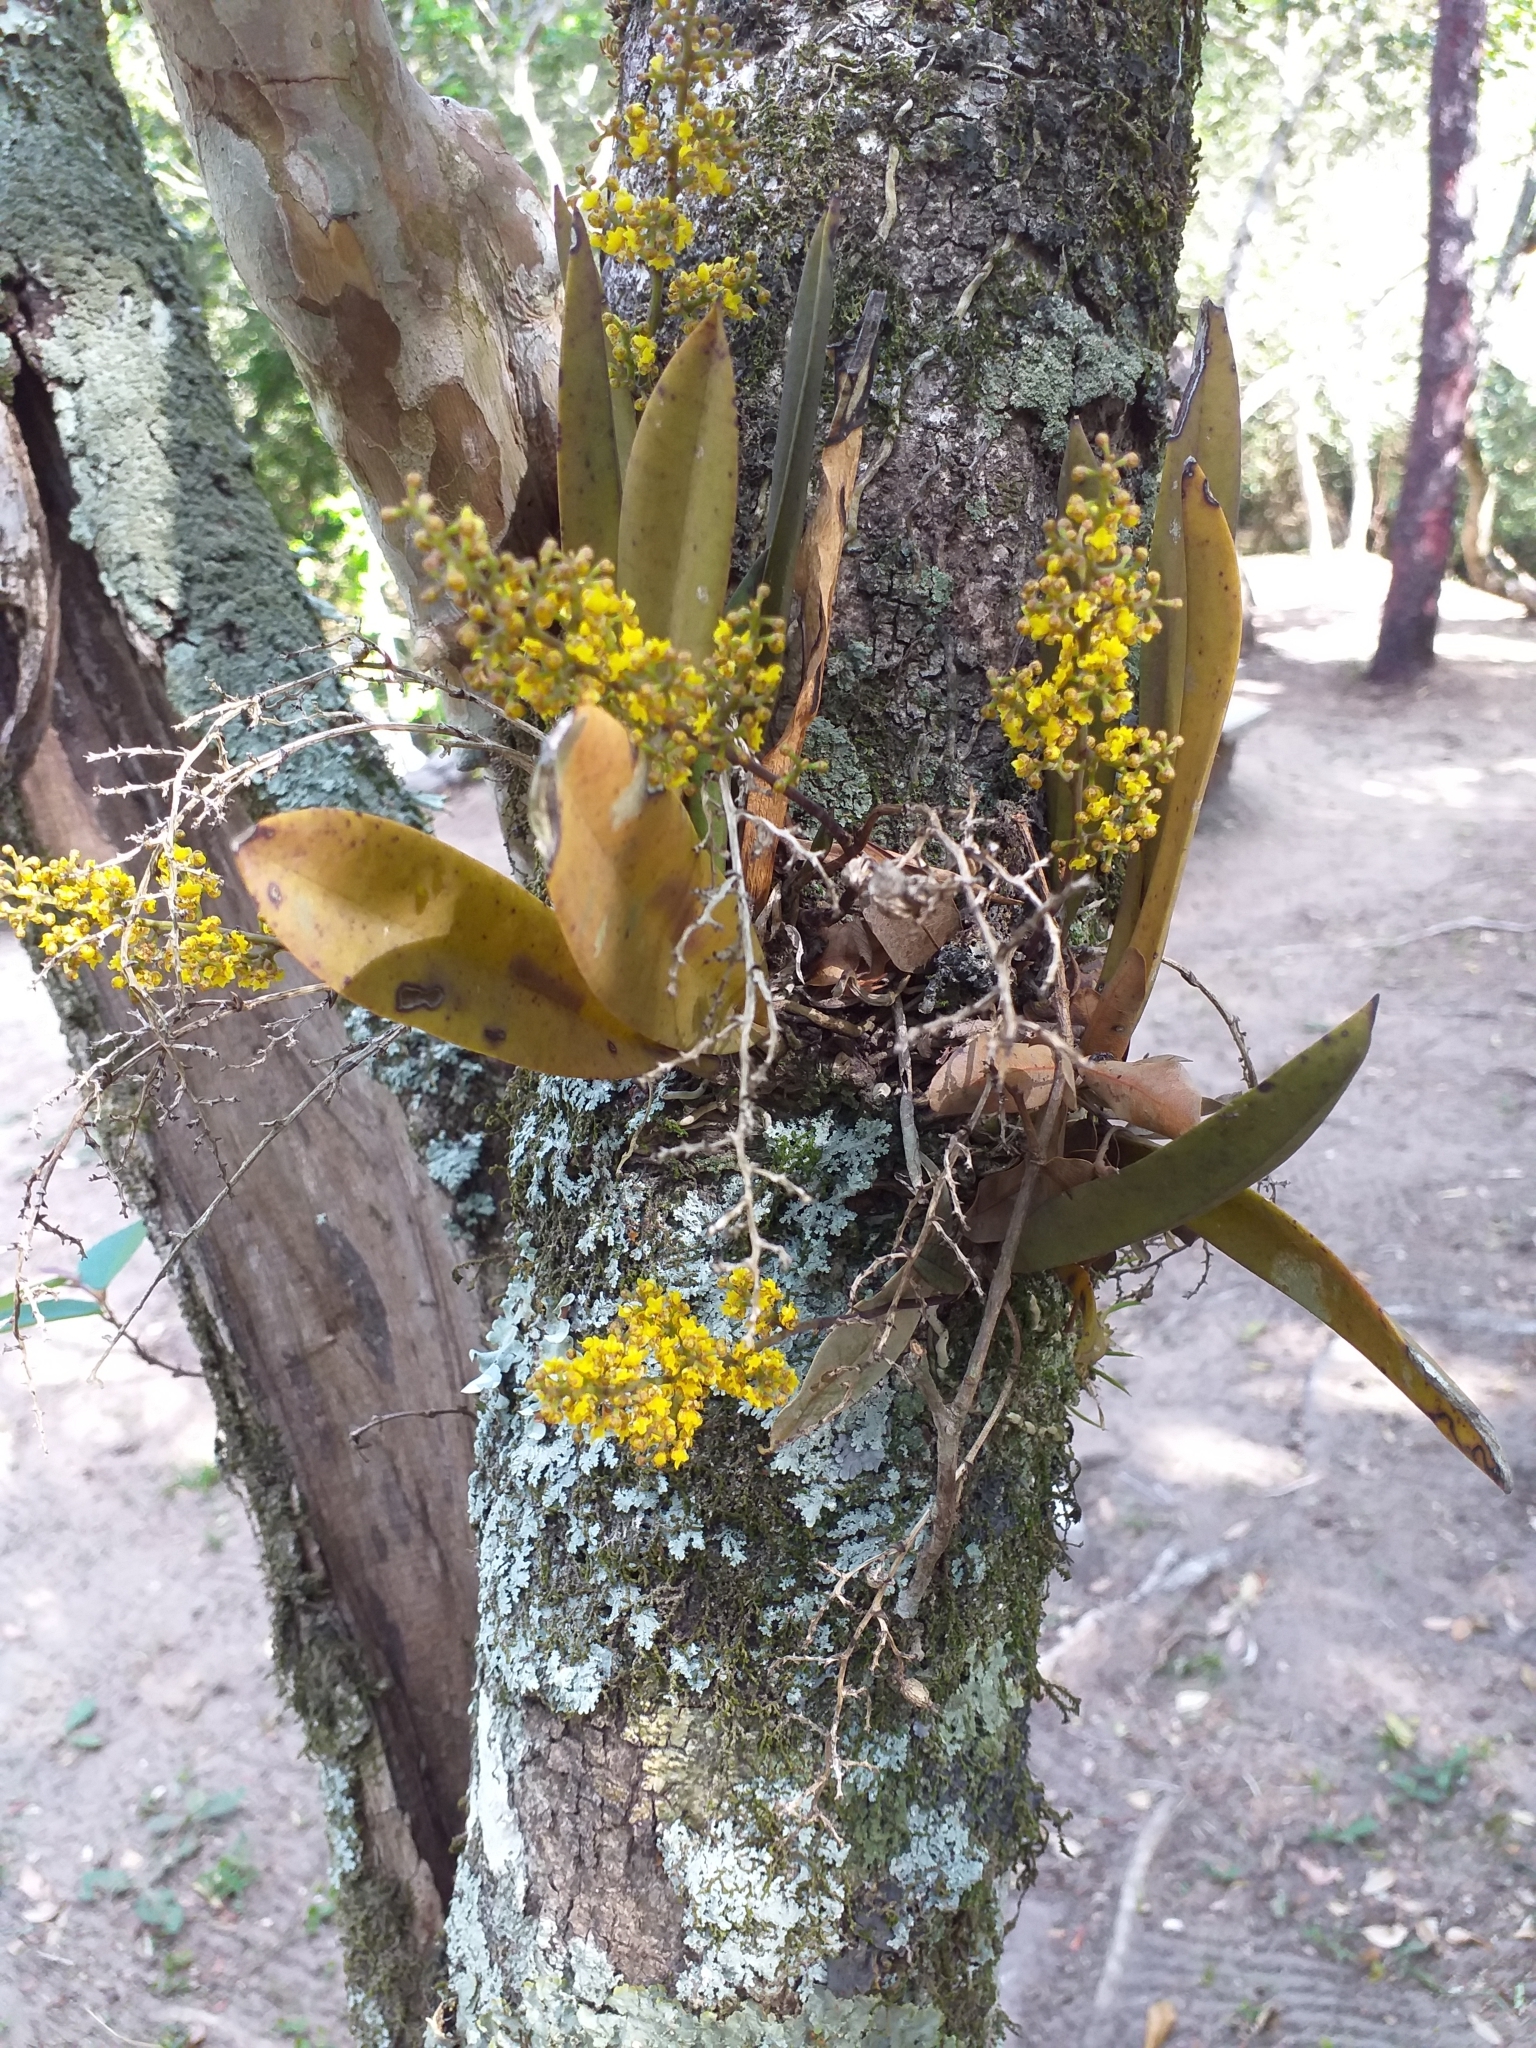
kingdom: Plantae
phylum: Tracheophyta
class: Liliopsida
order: Asparagales
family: Orchidaceae
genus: Trichocentrum
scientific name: Trichocentrum pumilum
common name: Mule-ear orchid
